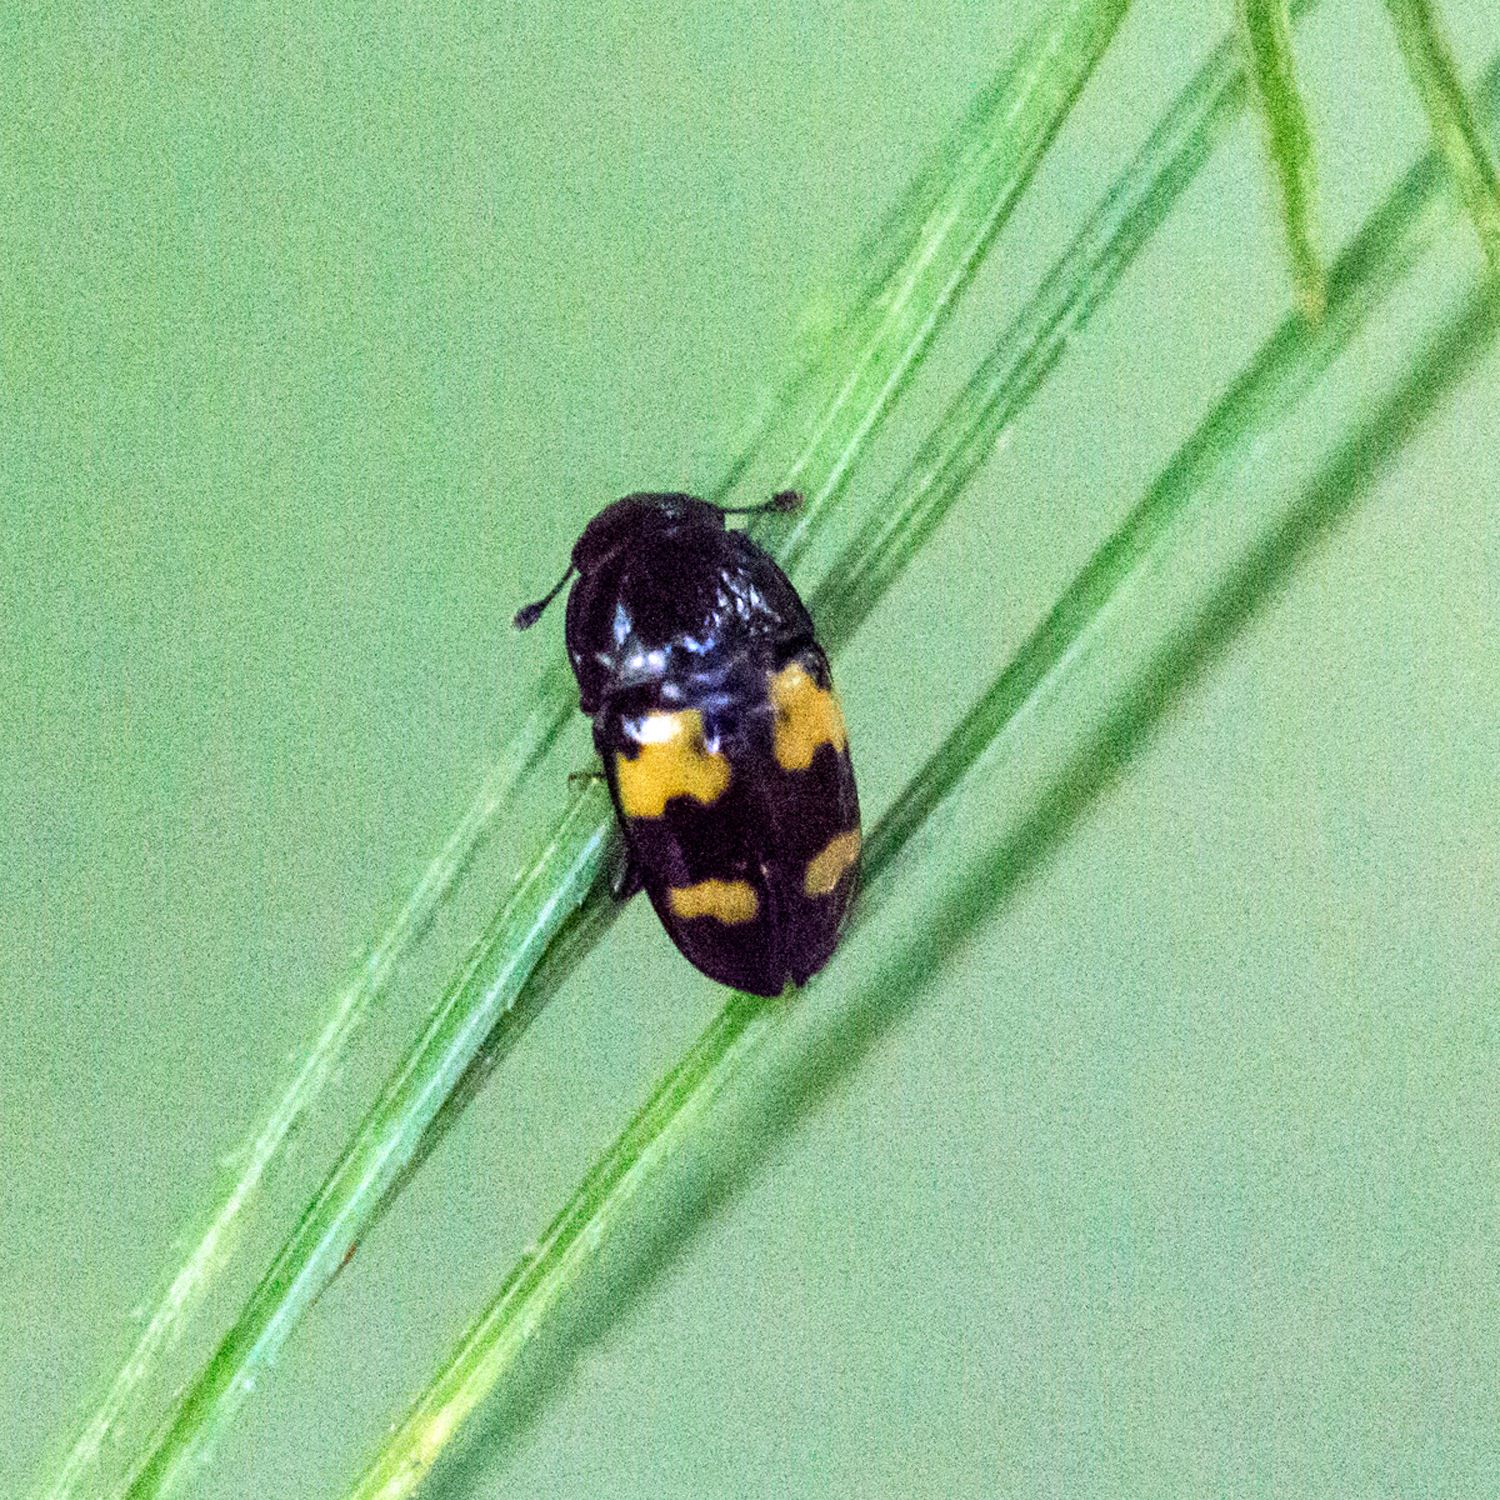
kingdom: Animalia
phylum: Arthropoda
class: Insecta
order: Coleoptera
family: Nitidulidae
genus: Glischrochilus
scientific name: Glischrochilus fasciatus
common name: Picnic beetle
